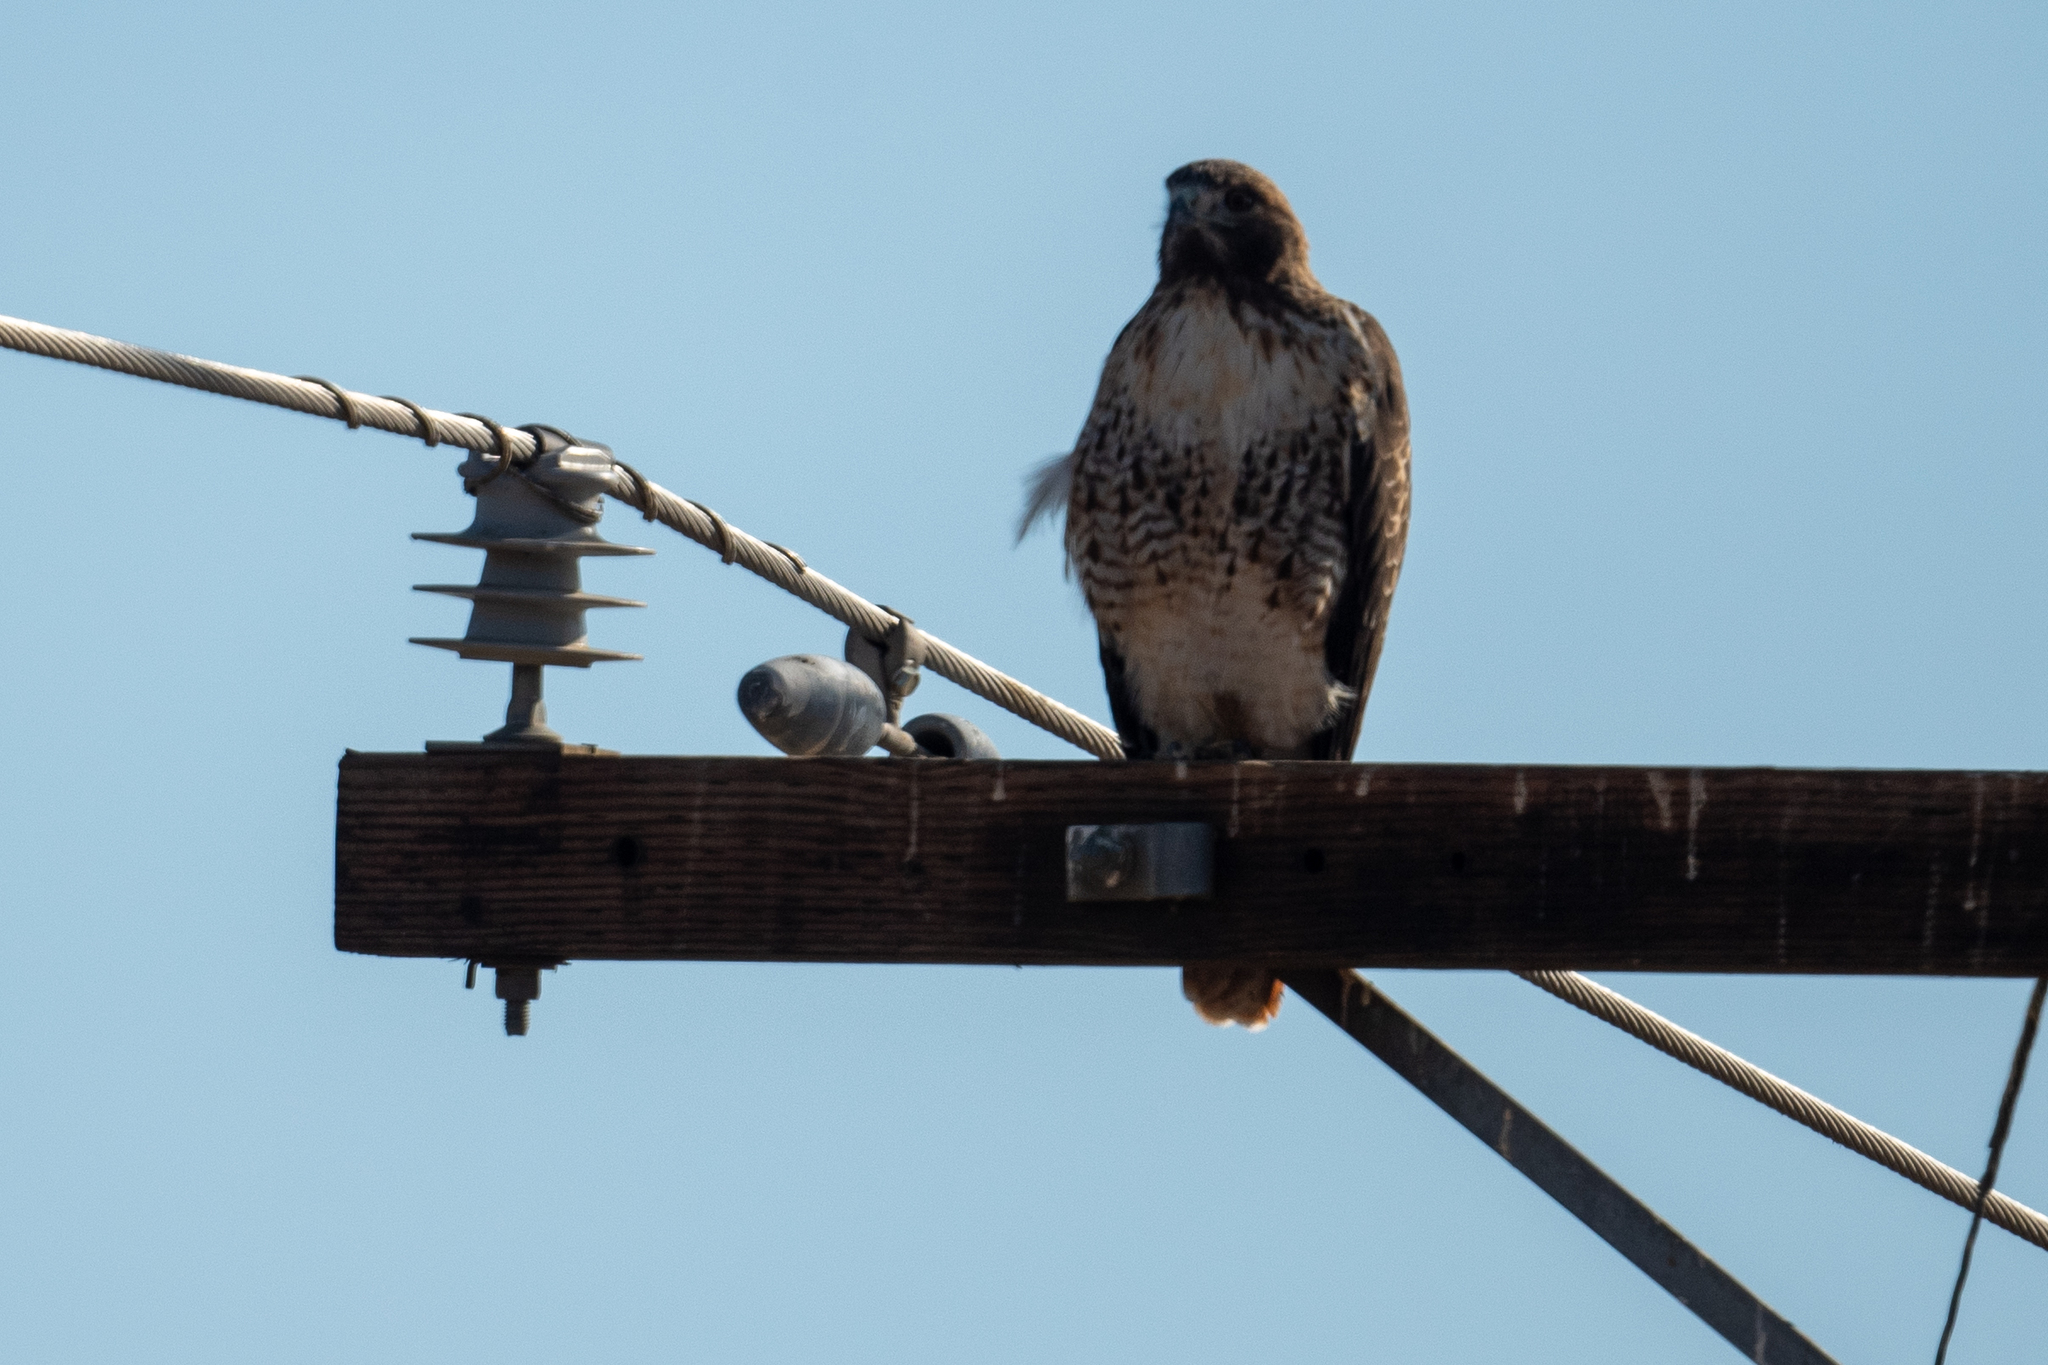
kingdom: Animalia
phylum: Chordata
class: Aves
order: Accipitriformes
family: Accipitridae
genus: Buteo
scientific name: Buteo jamaicensis
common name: Red-tailed hawk
